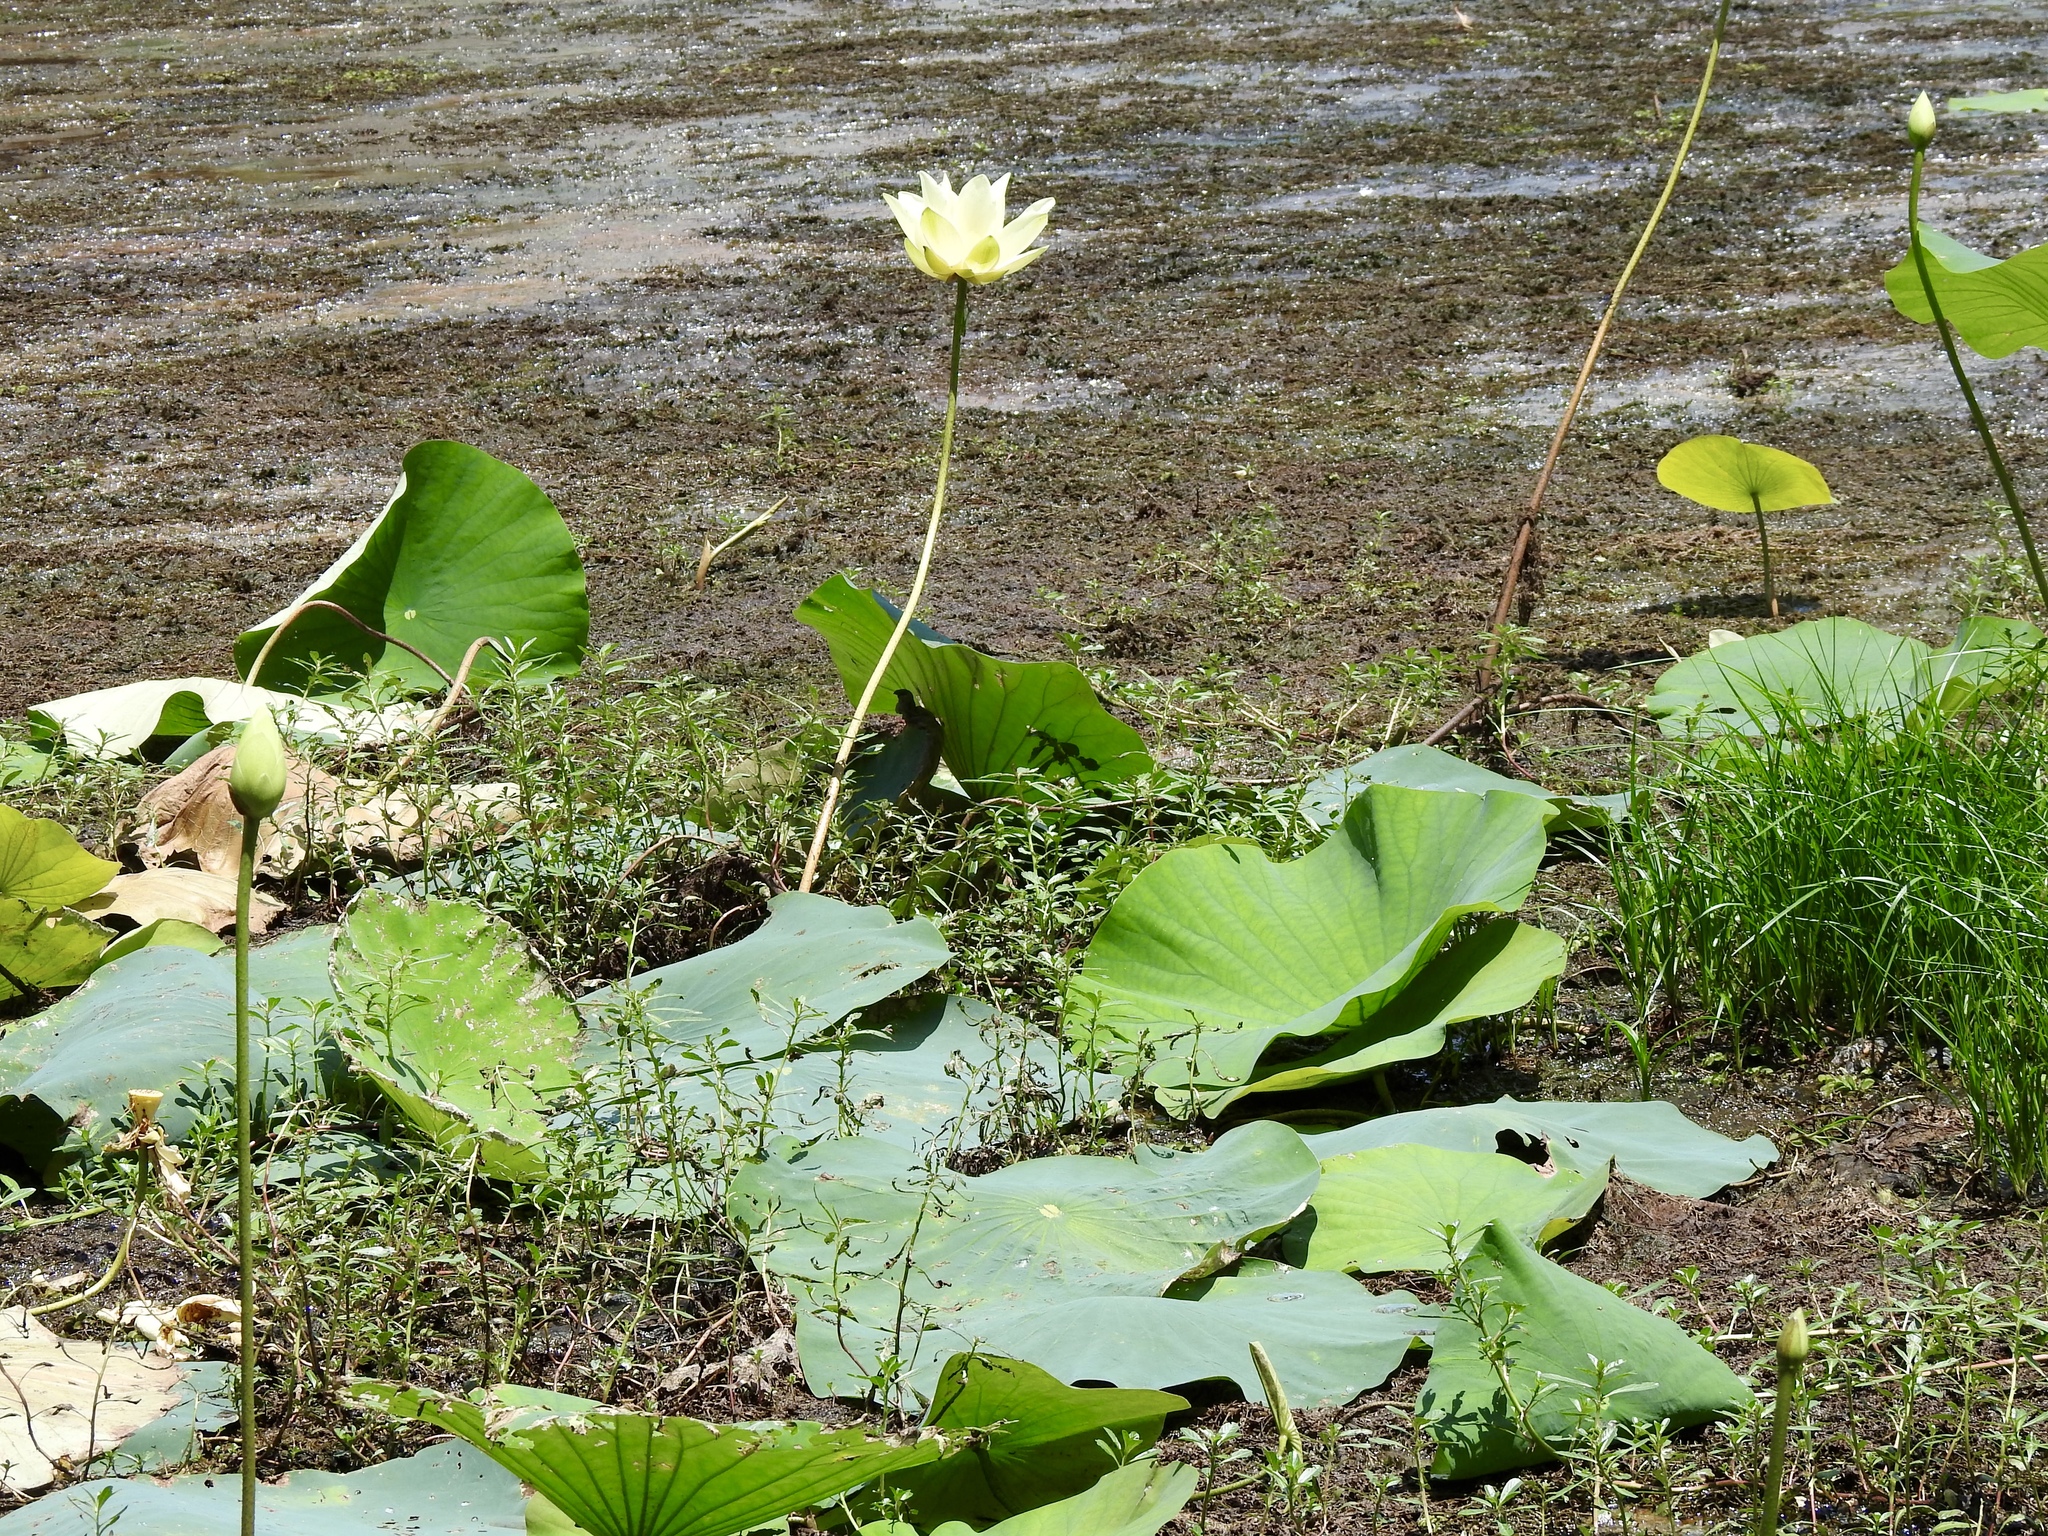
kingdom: Plantae
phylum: Tracheophyta
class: Magnoliopsida
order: Proteales
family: Nelumbonaceae
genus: Nelumbo
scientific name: Nelumbo lutea
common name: American lotus
